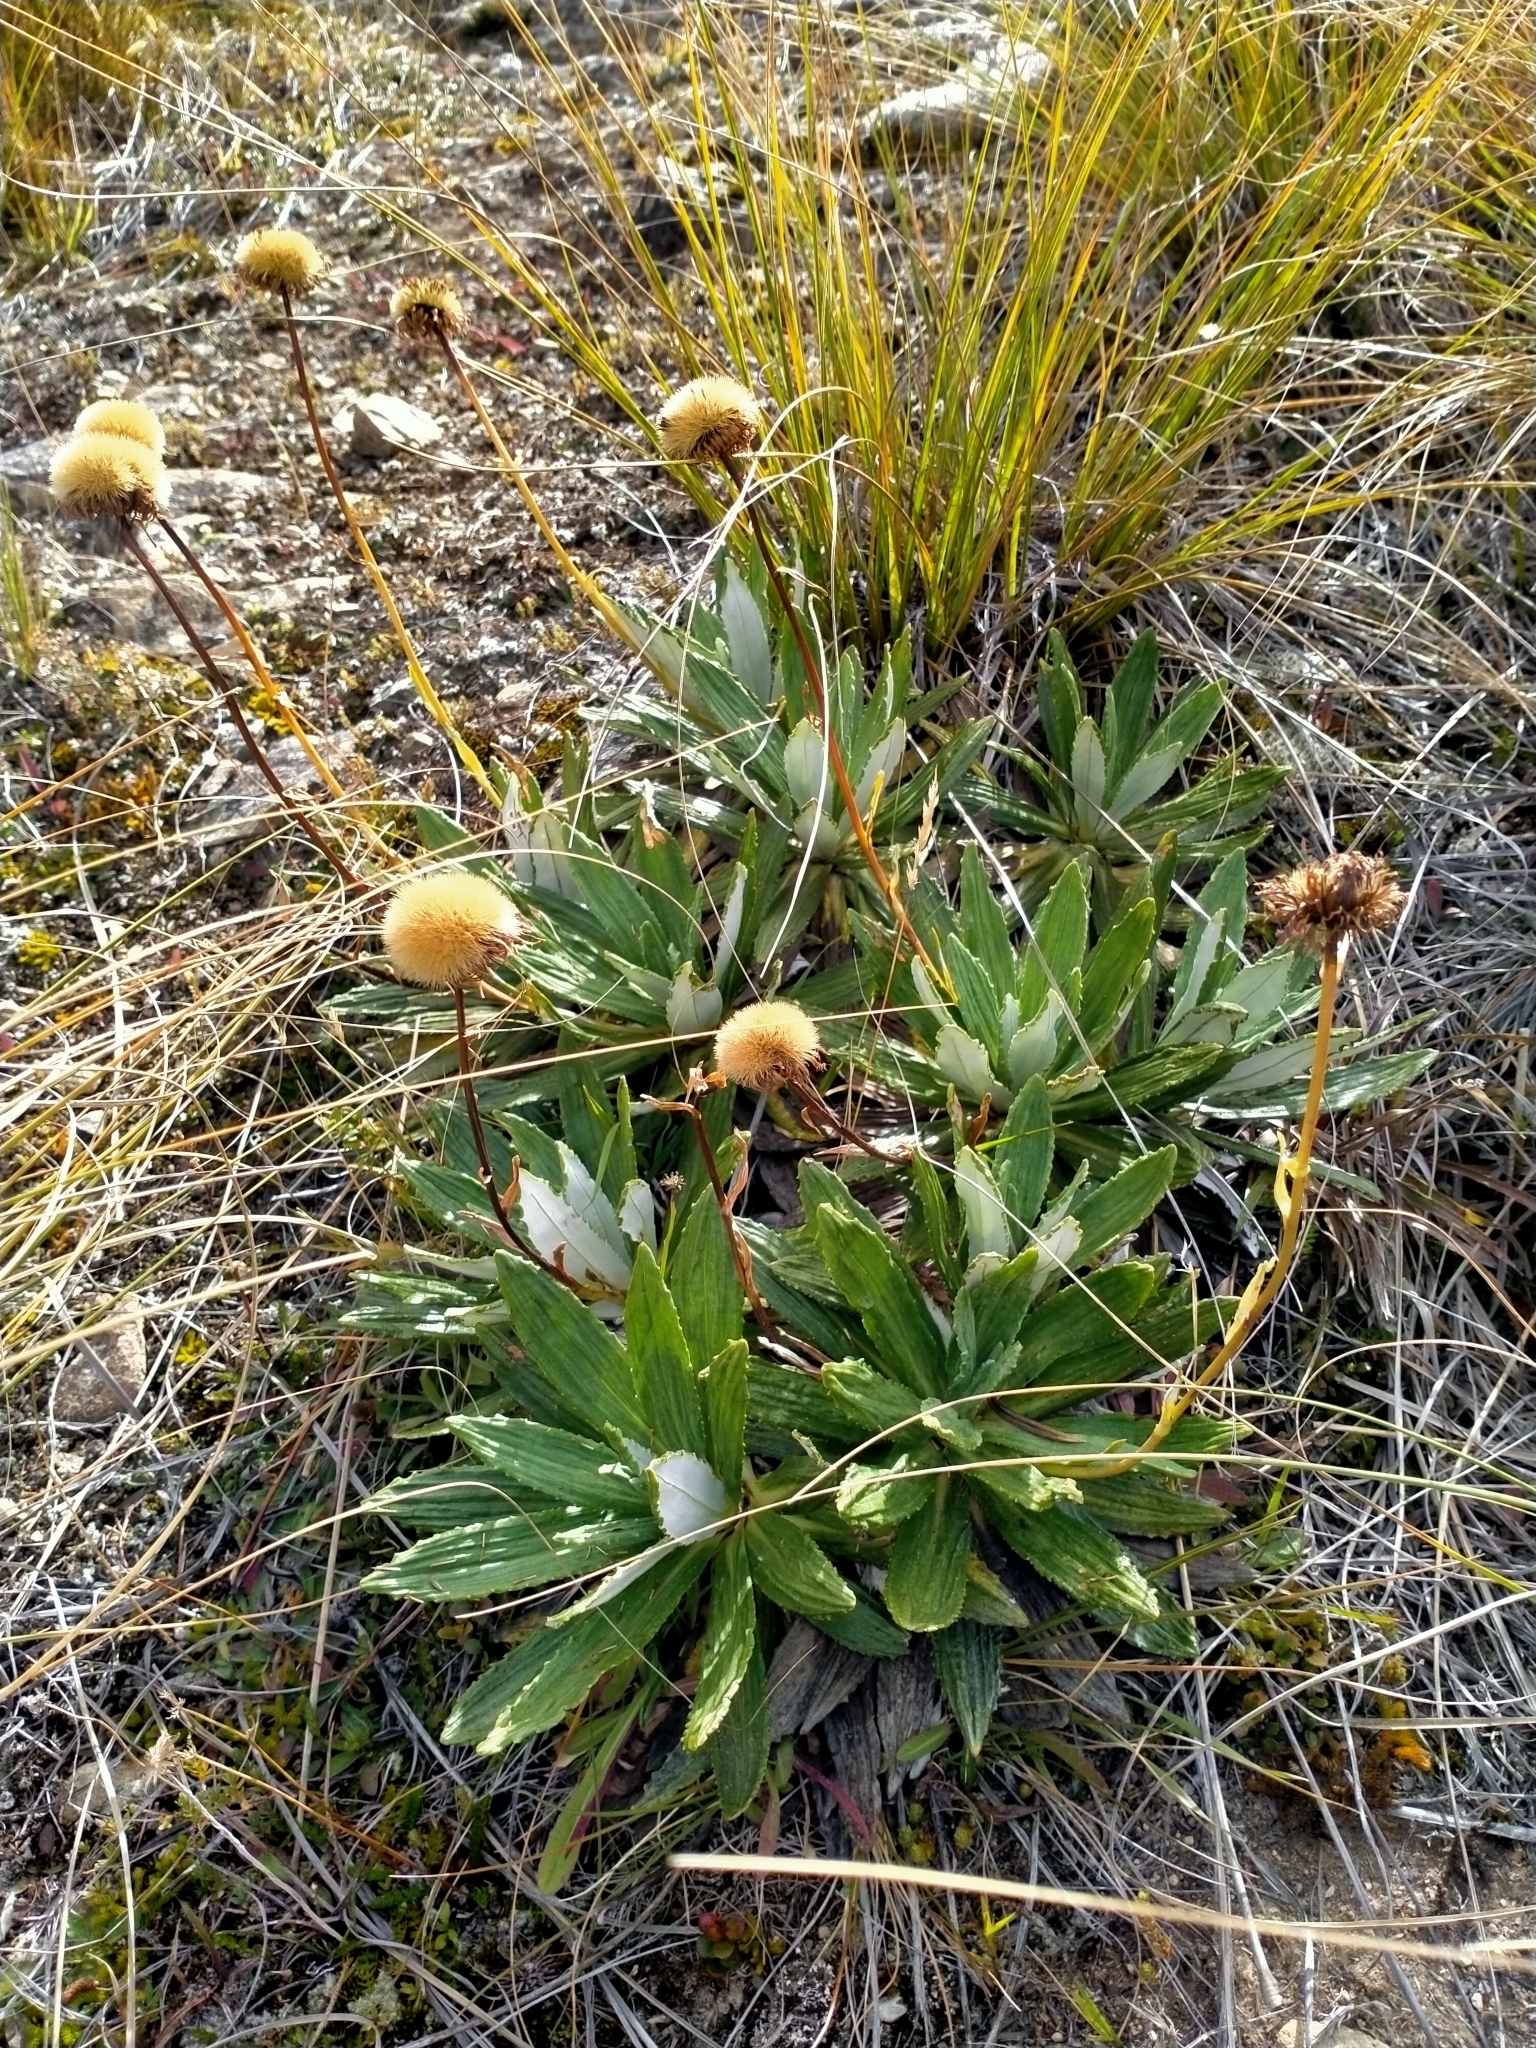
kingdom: Plantae
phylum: Tracheophyta
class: Magnoliopsida
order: Asterales
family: Asteraceae
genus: Celmisia
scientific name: Celmisia densiflora
